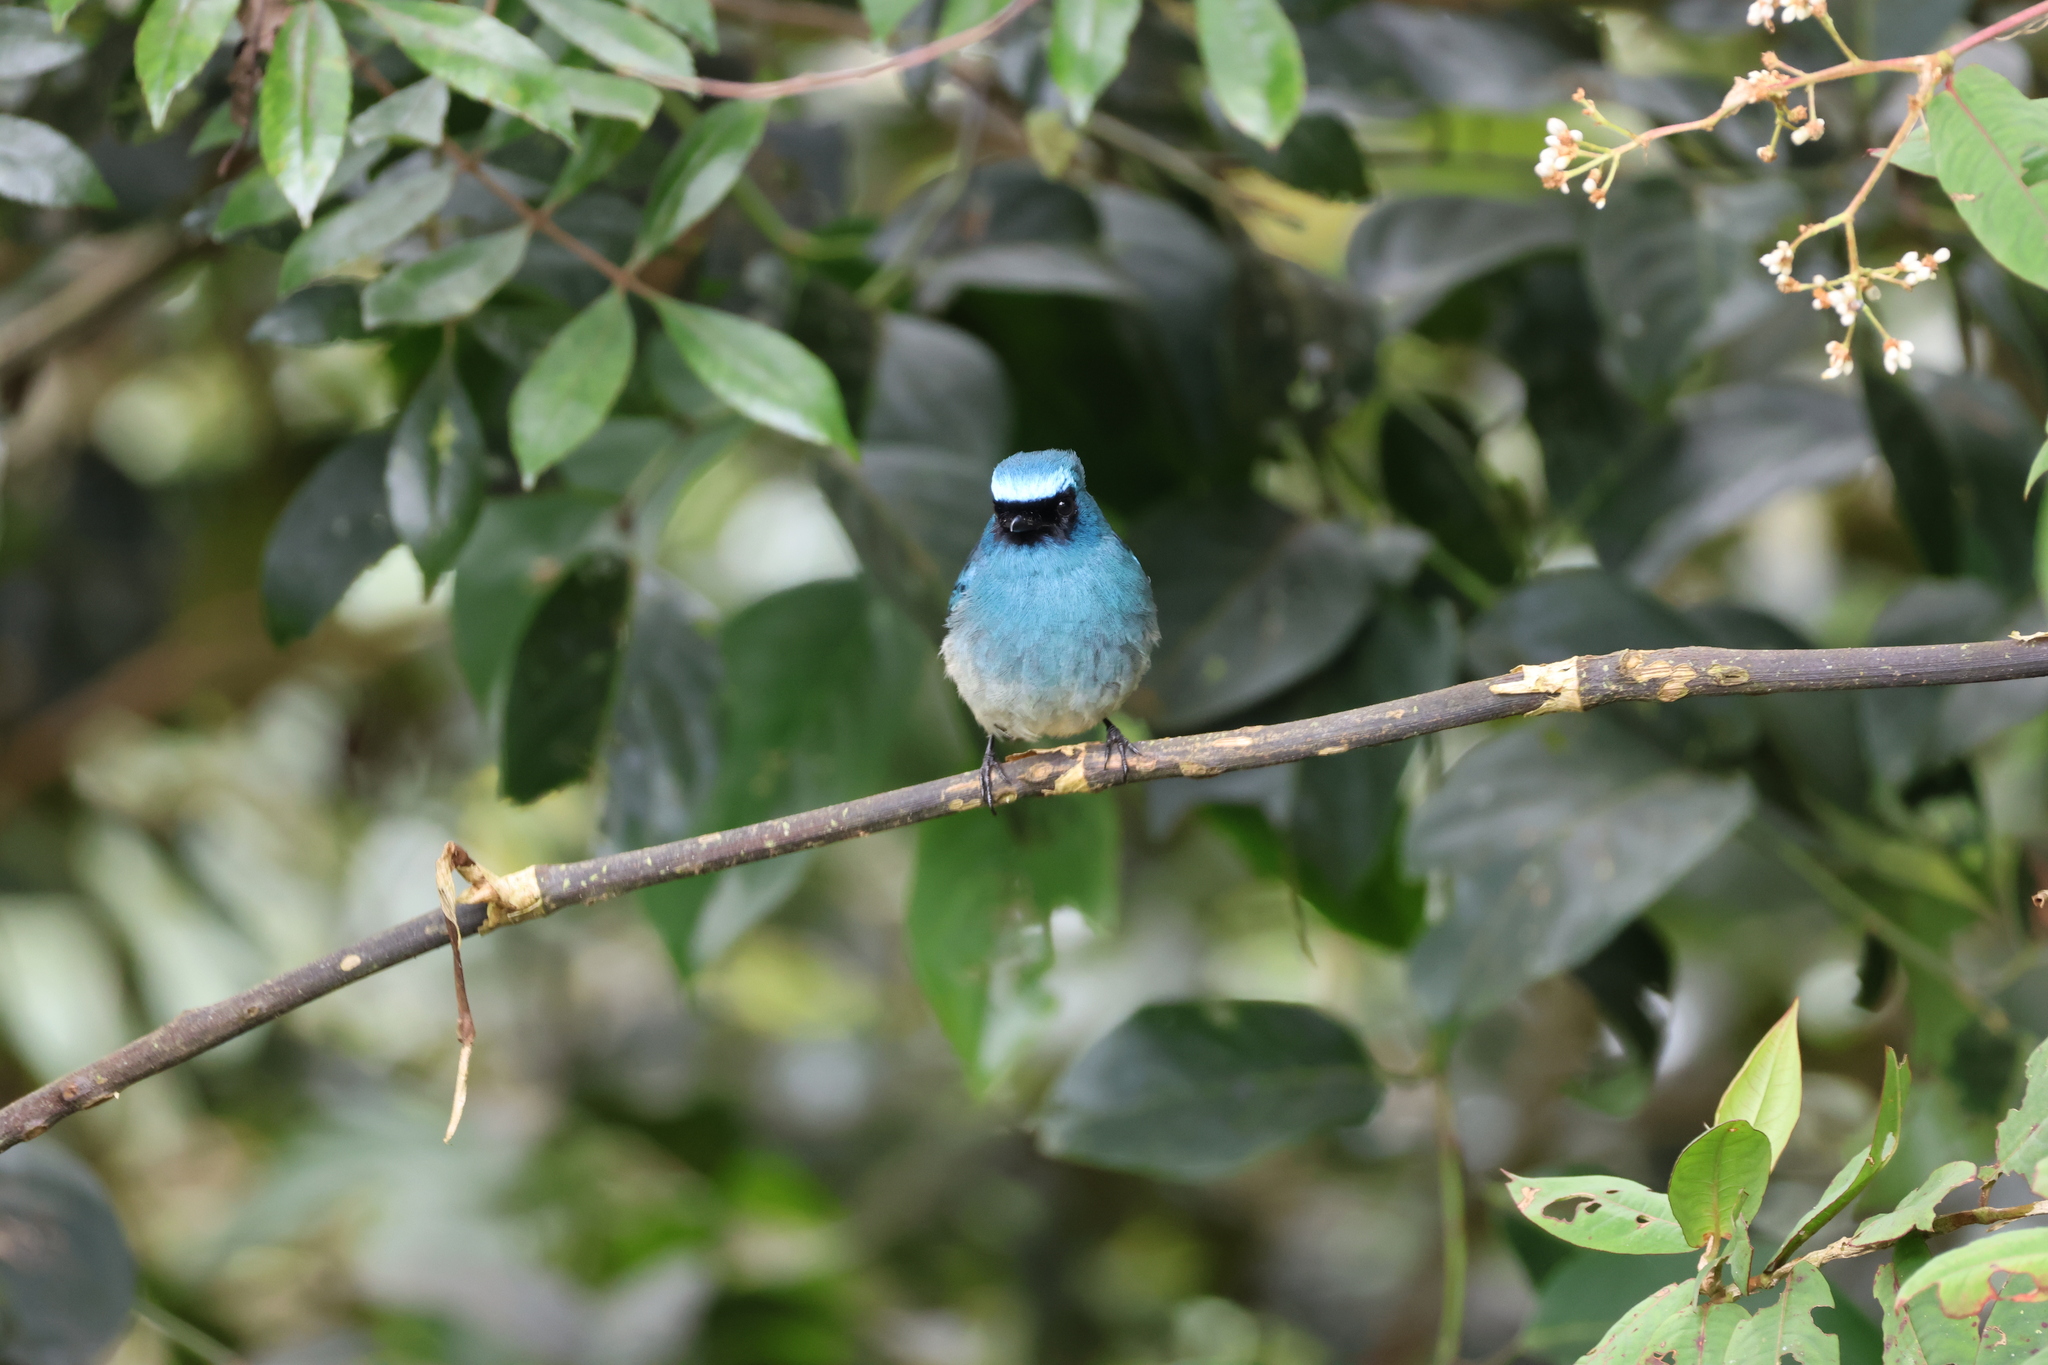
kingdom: Animalia
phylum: Chordata
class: Aves
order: Passeriformes
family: Muscicapidae
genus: Eumyias
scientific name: Eumyias indigo
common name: Indigo flycatcher
